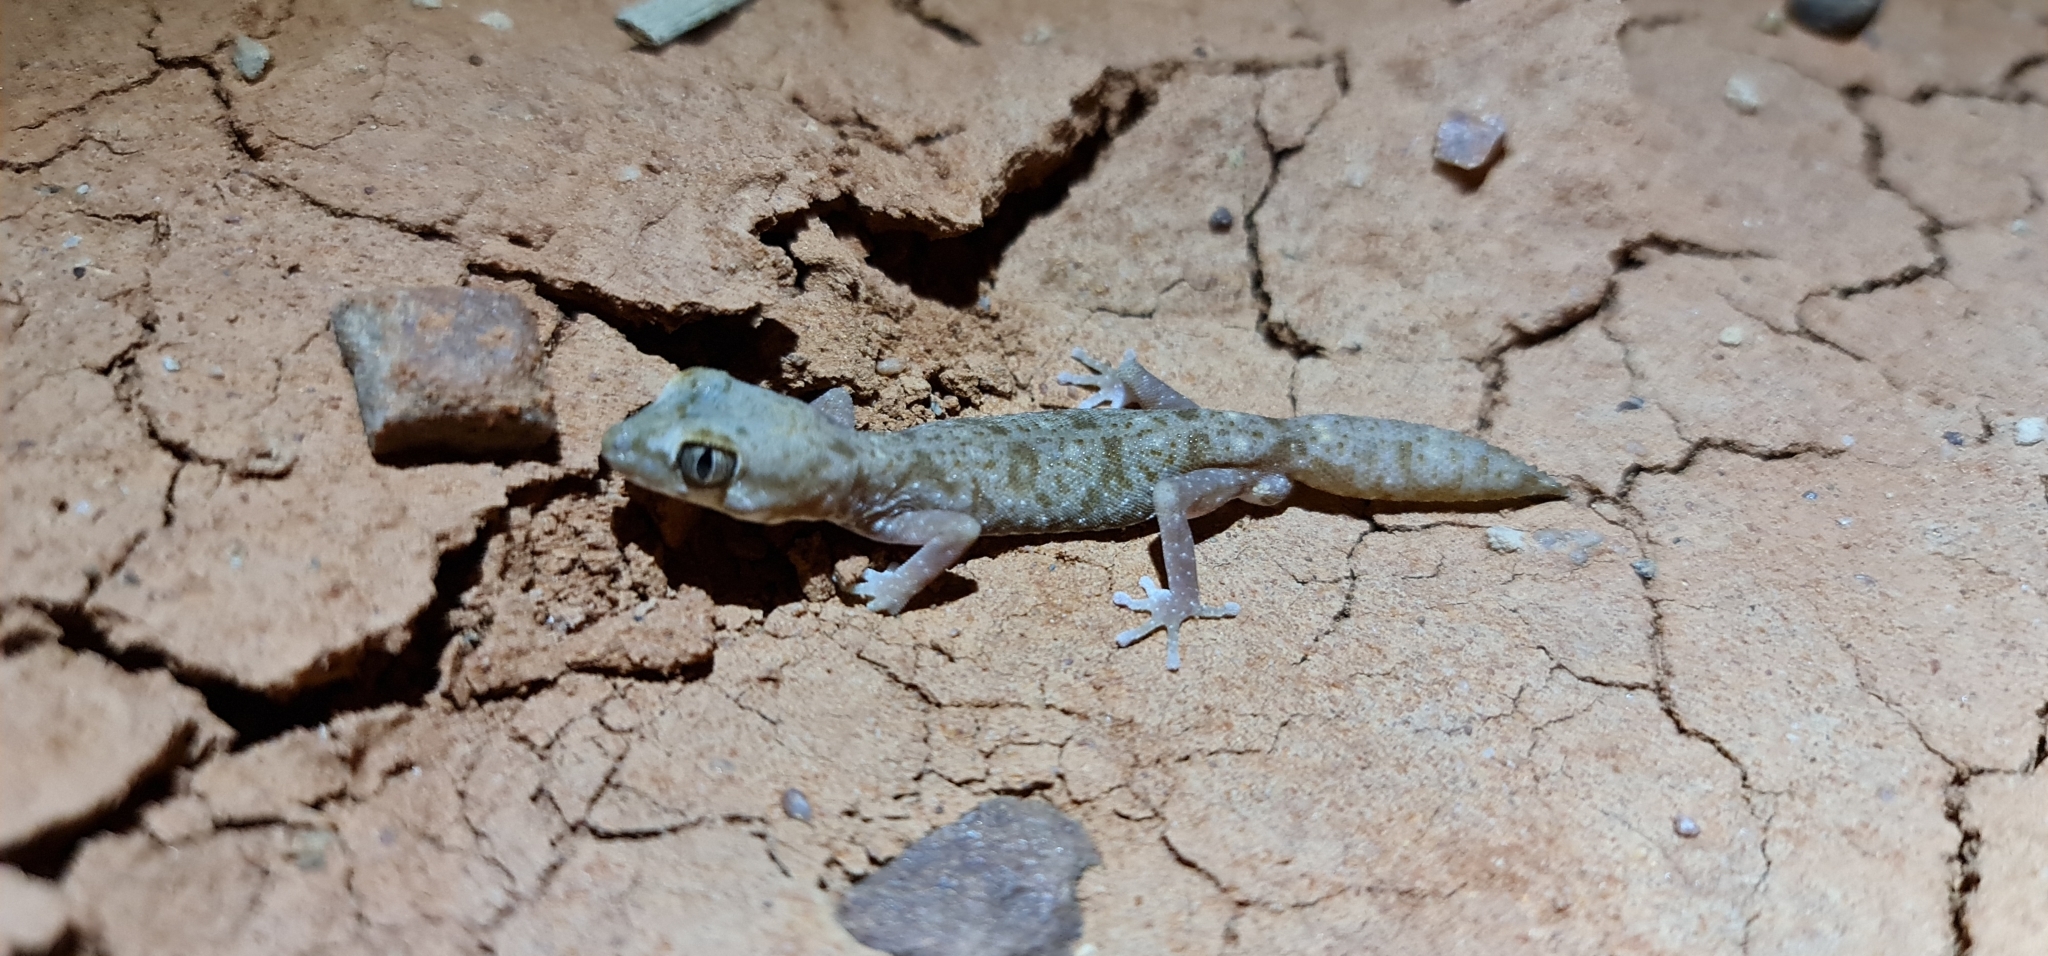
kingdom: Animalia
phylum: Chordata
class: Squamata
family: Diplodactylidae
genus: Diplodactylus
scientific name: Diplodactylus tessellatus
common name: Tesselated gecko
